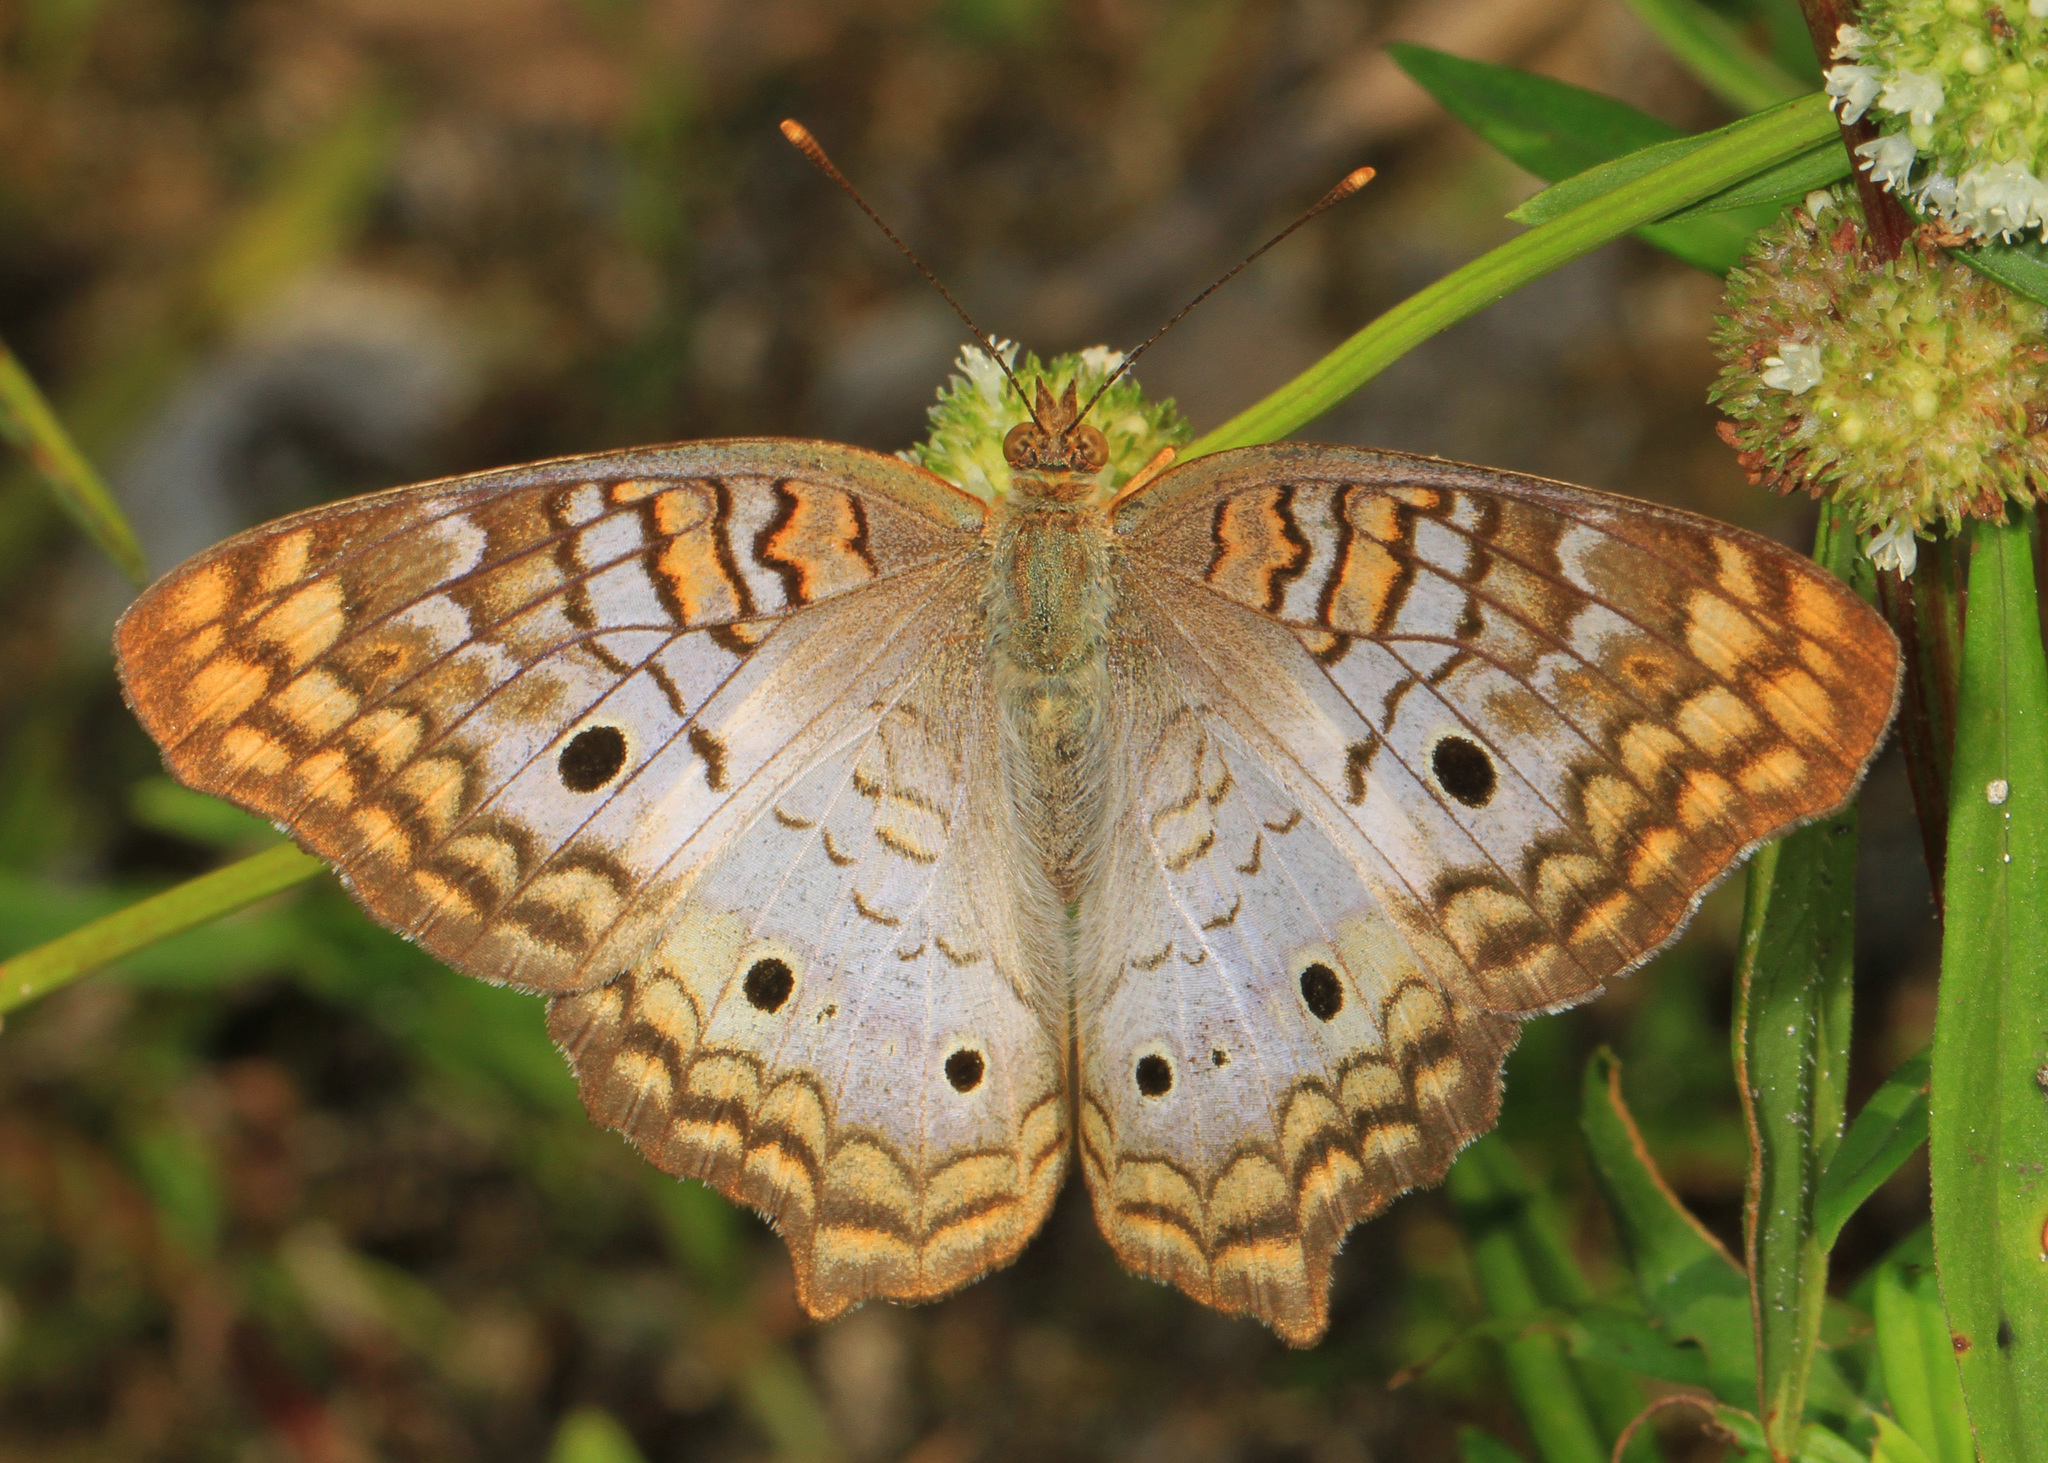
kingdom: Animalia
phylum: Arthropoda
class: Insecta
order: Lepidoptera
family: Nymphalidae
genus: Anartia
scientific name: Anartia jatrophae
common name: White peacock
